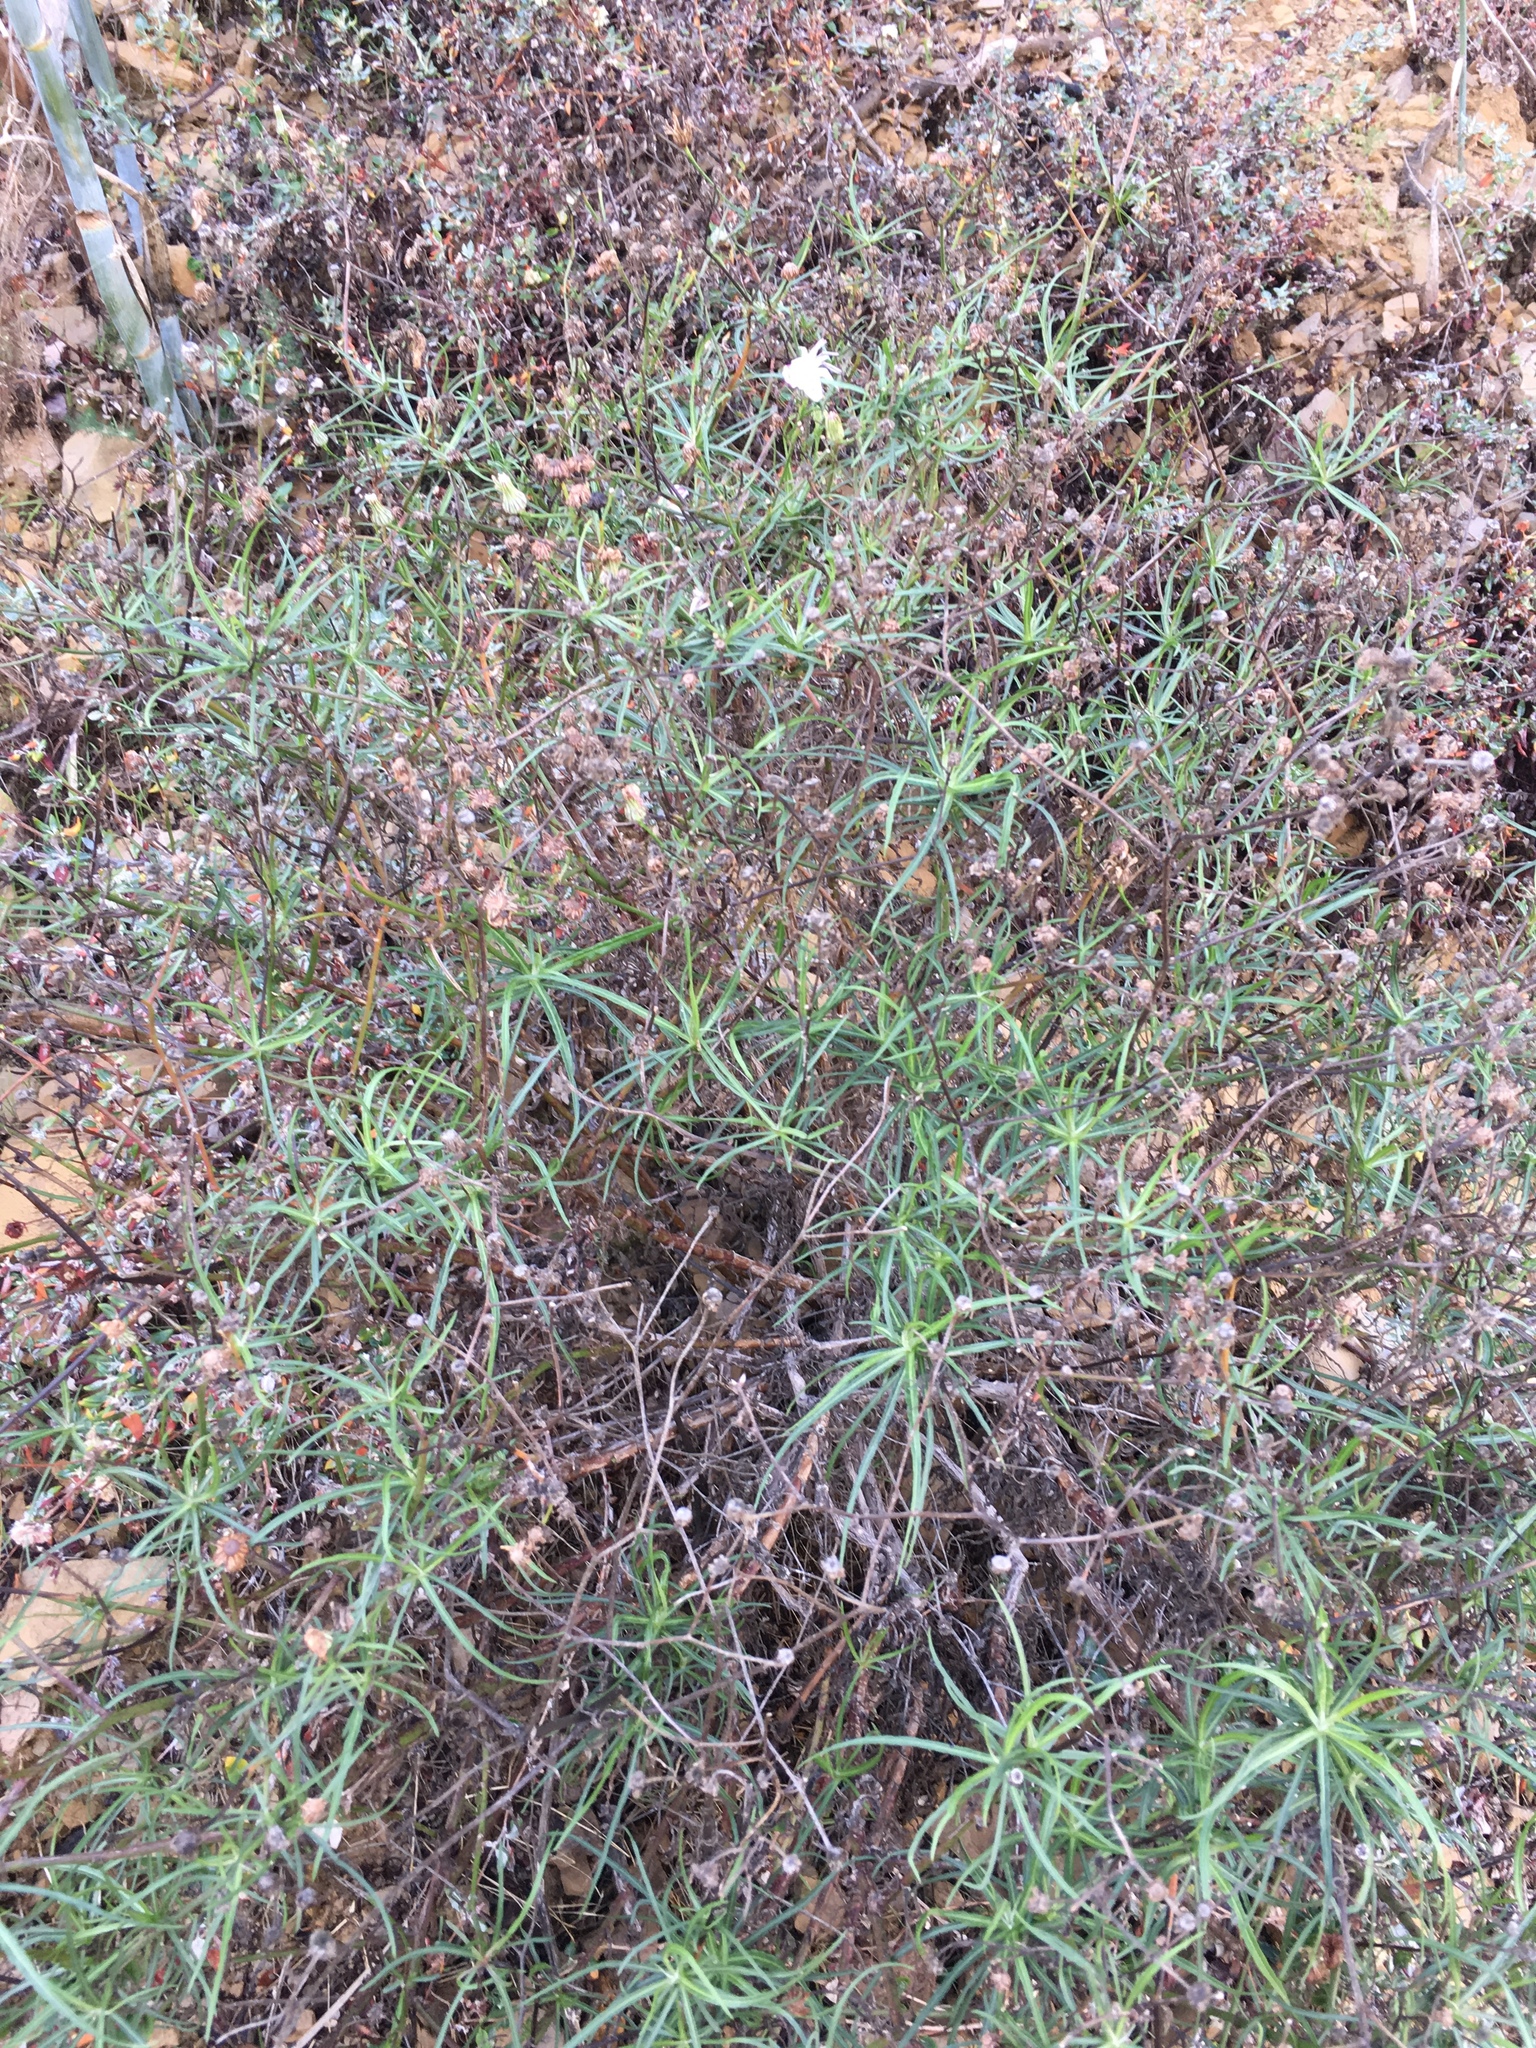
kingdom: Plantae
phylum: Tracheophyta
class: Magnoliopsida
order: Asterales
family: Asteraceae
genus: Malacothrix
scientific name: Malacothrix saxatilis
